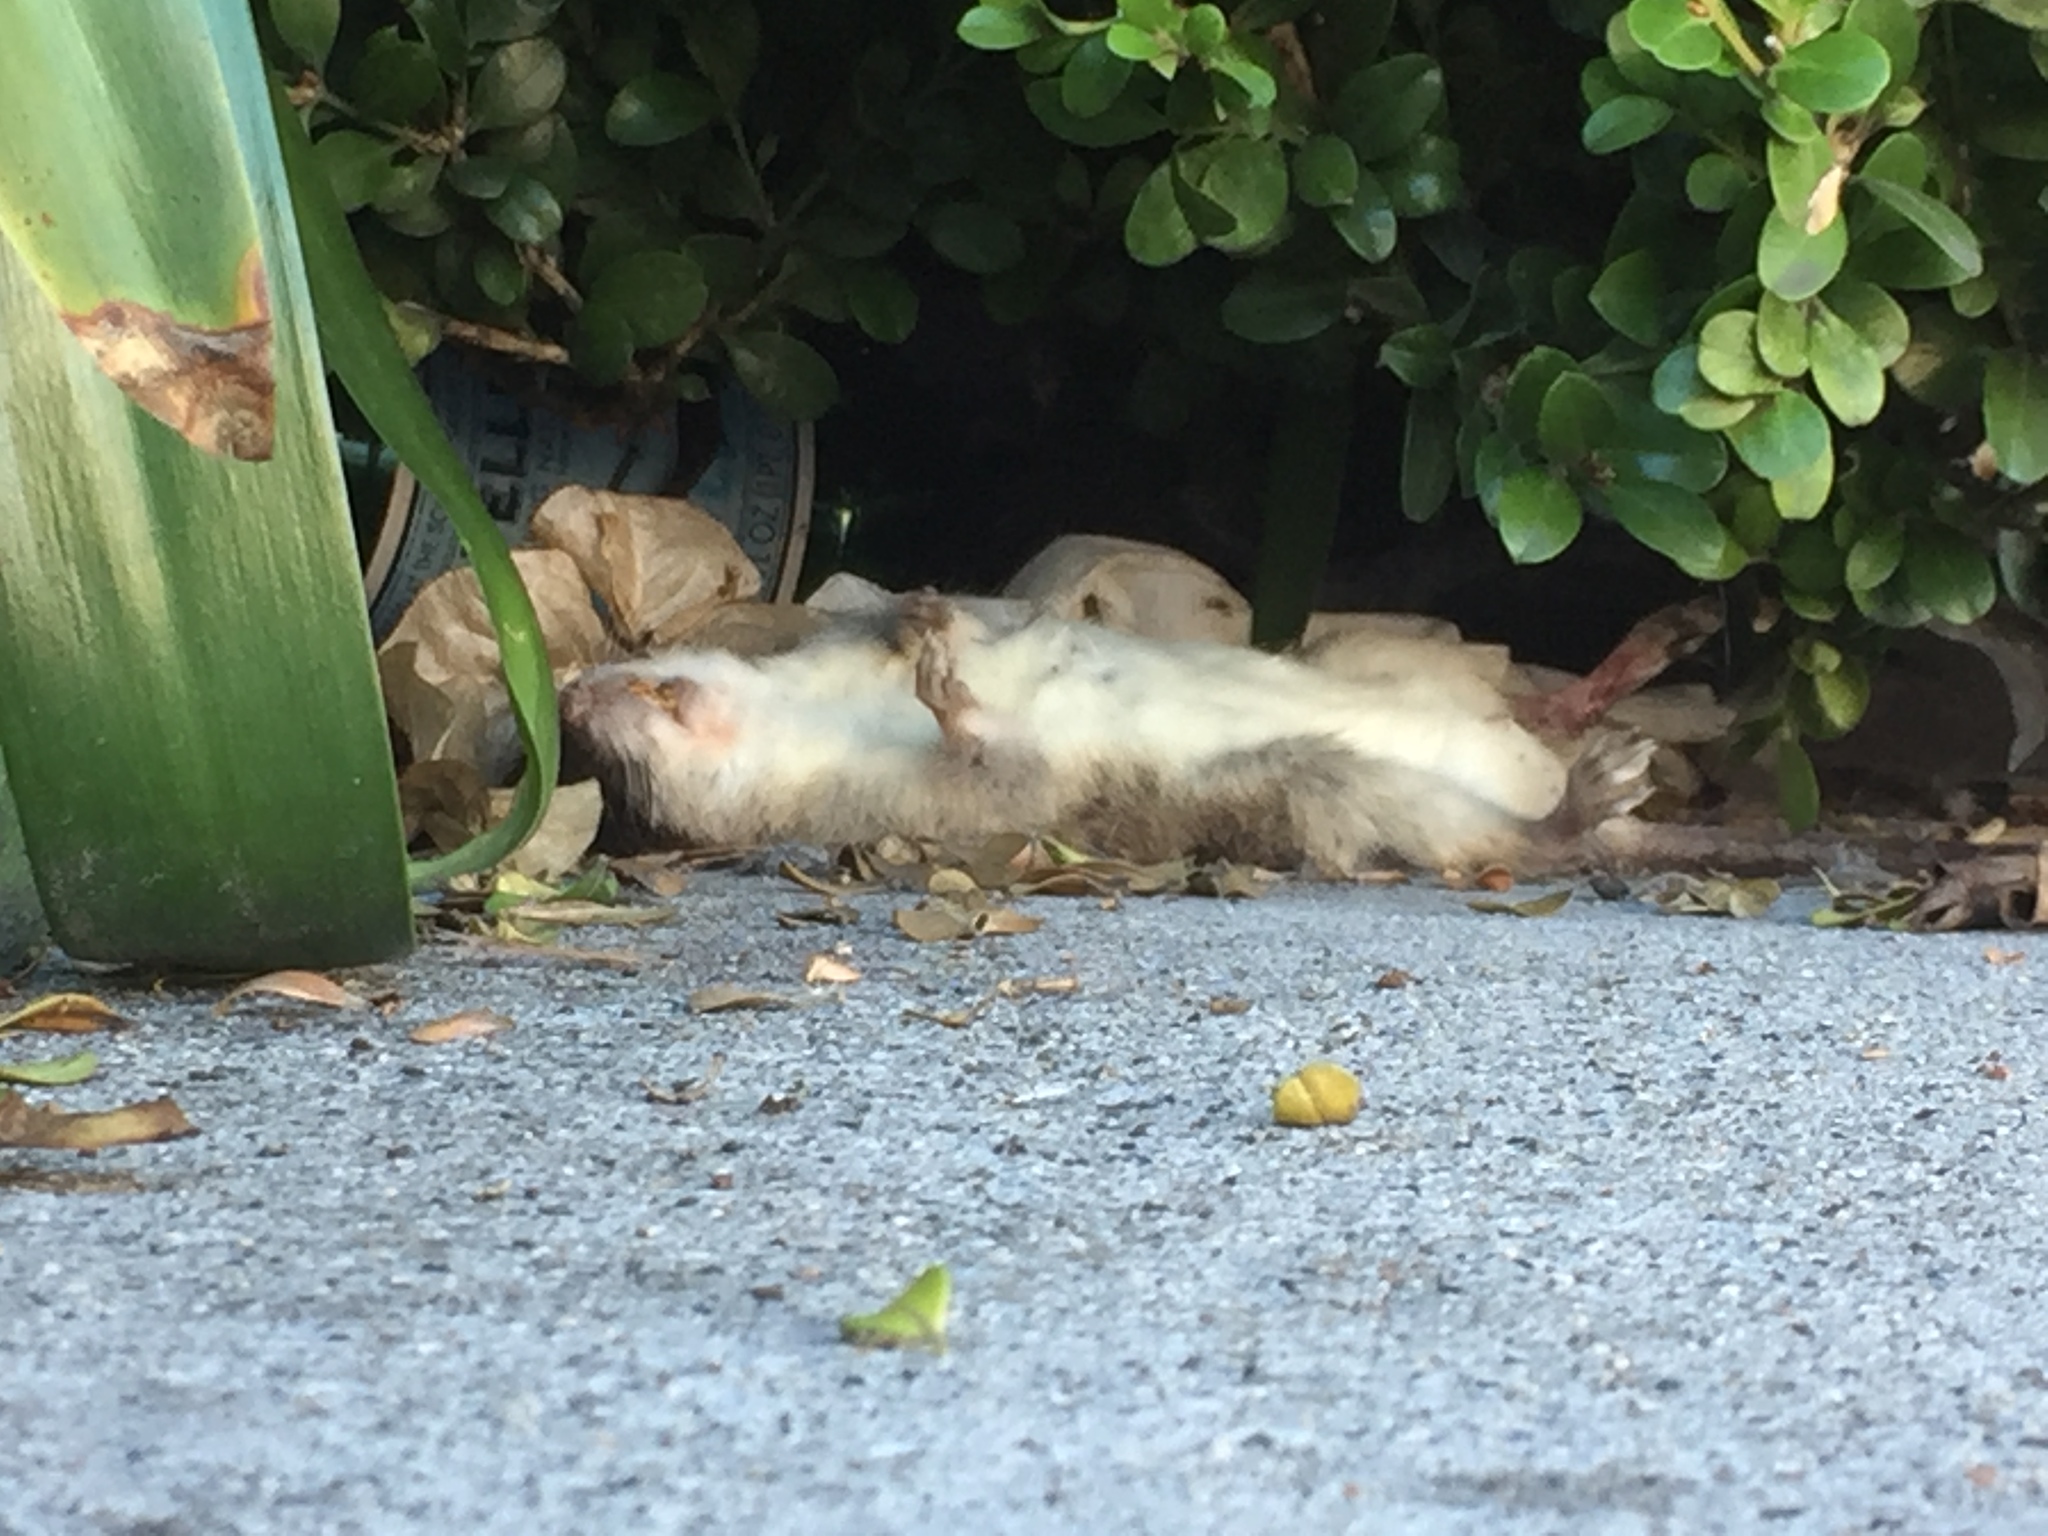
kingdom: Animalia
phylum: Chordata
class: Mammalia
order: Rodentia
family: Muridae
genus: Rattus
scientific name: Rattus rattus
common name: Black rat
